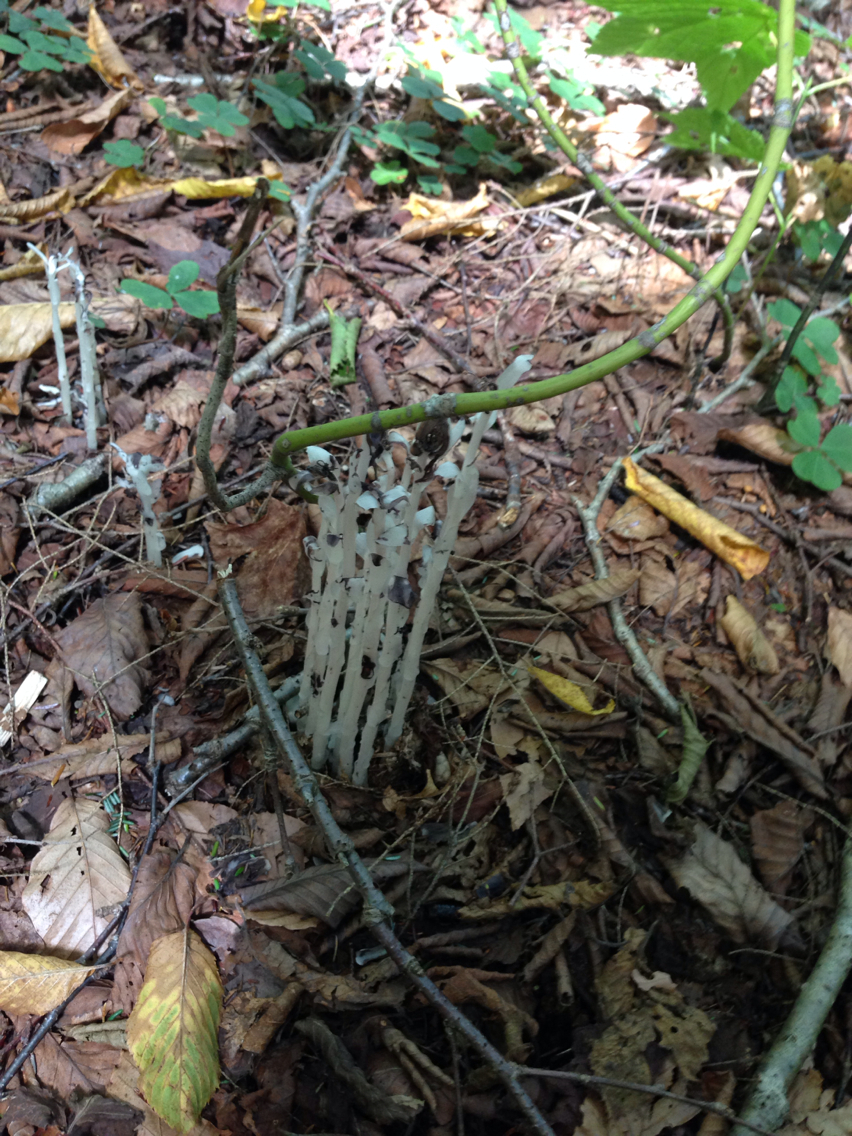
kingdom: Plantae
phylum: Tracheophyta
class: Magnoliopsida
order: Ericales
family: Ericaceae
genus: Monotropa
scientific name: Monotropa uniflora
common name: Convulsion root
